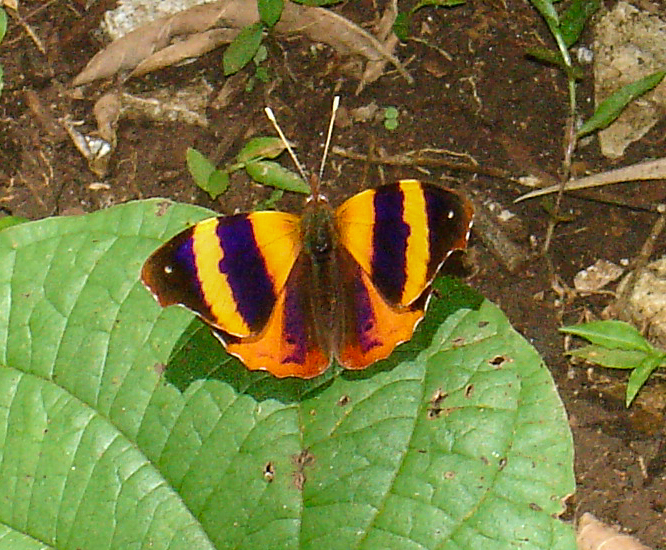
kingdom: Animalia
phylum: Arthropoda
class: Insecta
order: Lepidoptera
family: Nymphalidae
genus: Epiphile
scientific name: Epiphile adrasta
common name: Common banner
